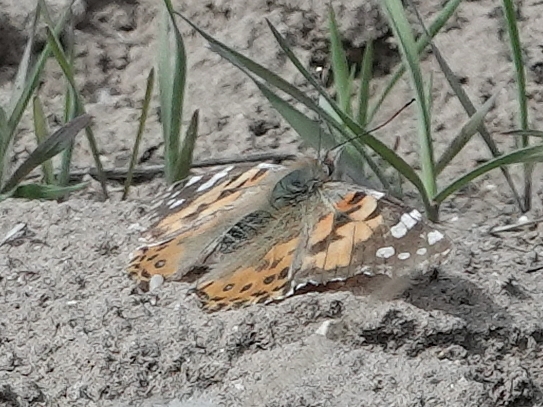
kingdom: Animalia
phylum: Arthropoda
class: Insecta
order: Lepidoptera
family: Nymphalidae
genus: Vanessa
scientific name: Vanessa cardui
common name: Painted lady
